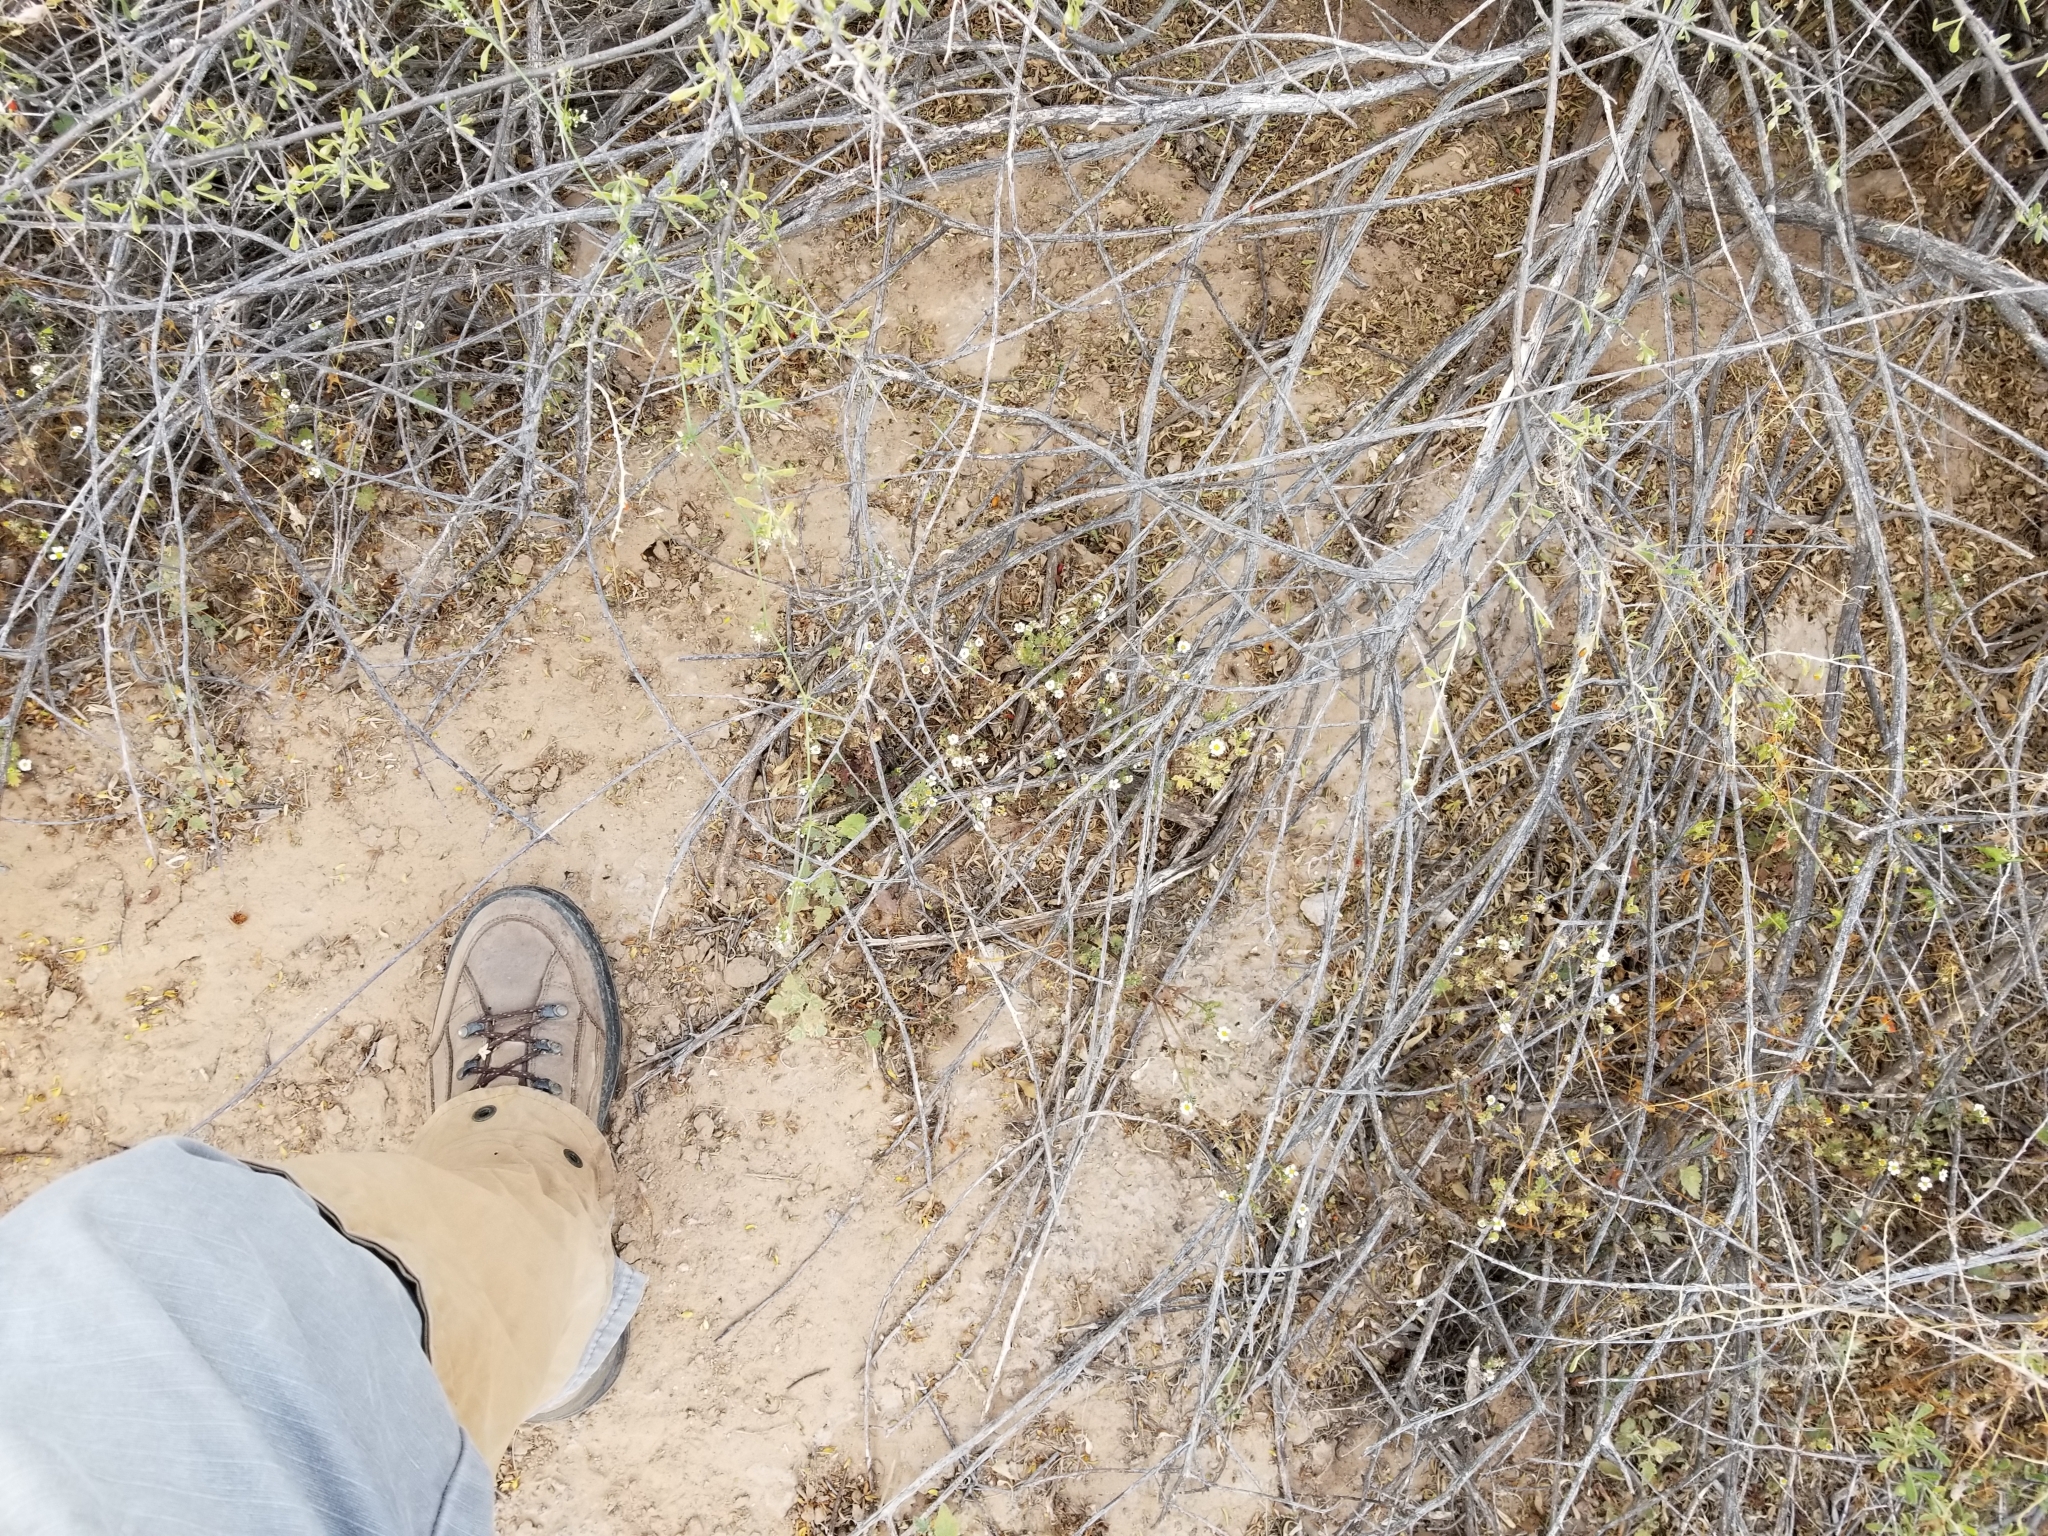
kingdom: Plantae
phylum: Tracheophyta
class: Magnoliopsida
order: Asterales
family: Asteraceae
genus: Laphamia
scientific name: Laphamia emoryi
